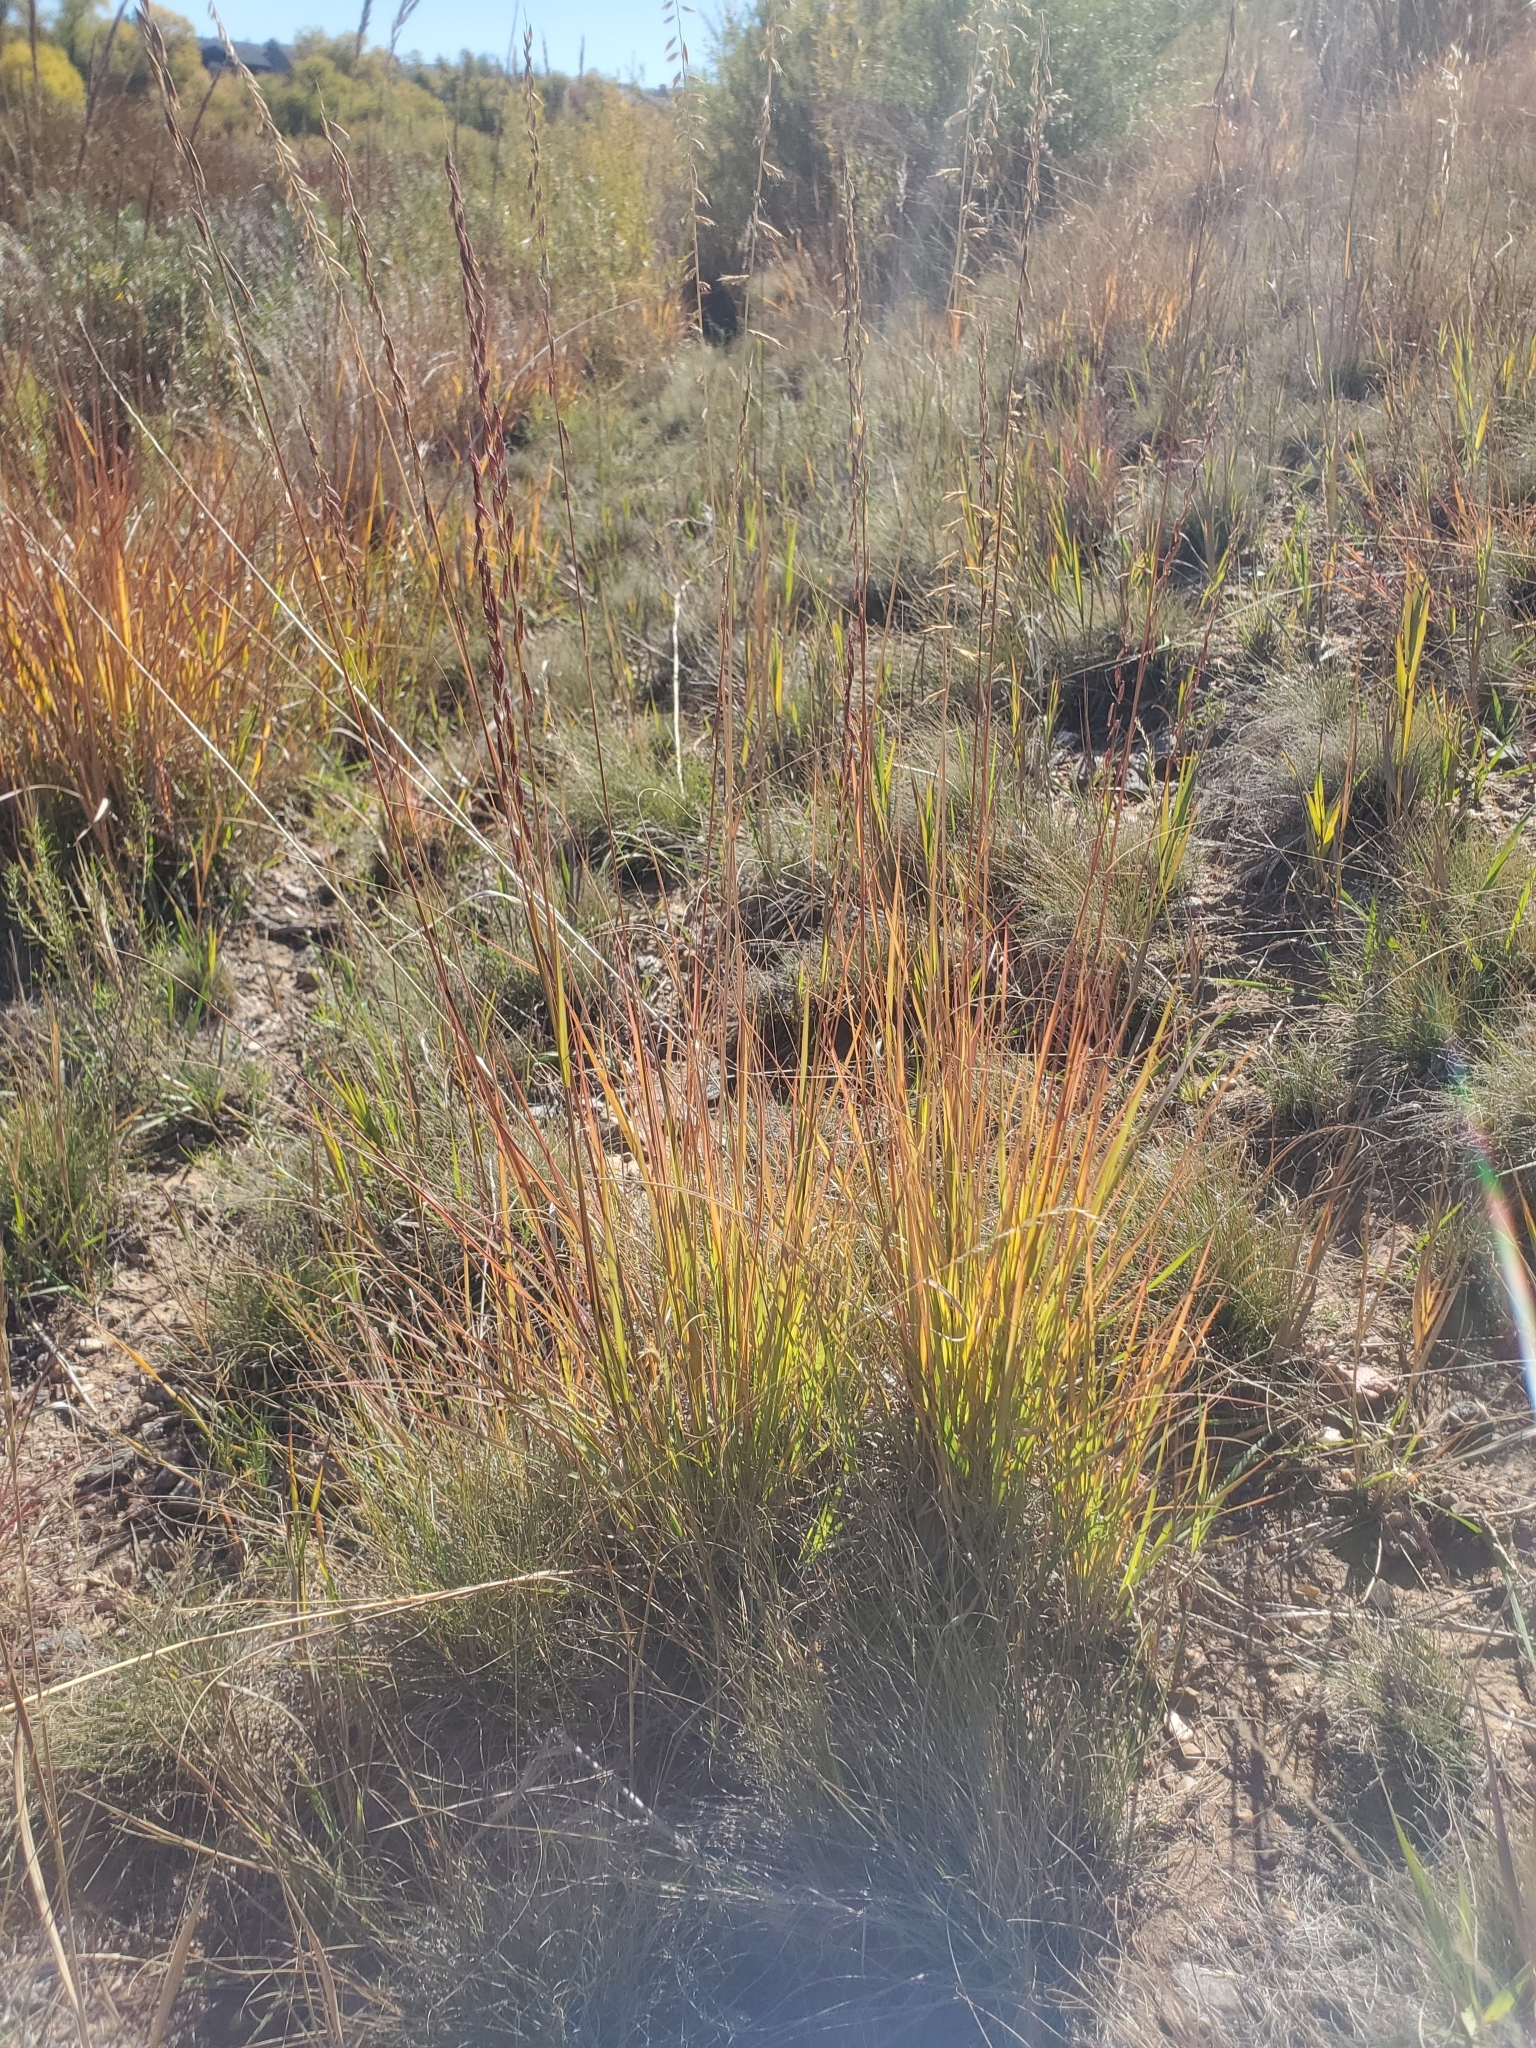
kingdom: Plantae
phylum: Tracheophyta
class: Liliopsida
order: Poales
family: Poaceae
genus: Bouteloua
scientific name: Bouteloua curtipendula
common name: Side-oats grama
